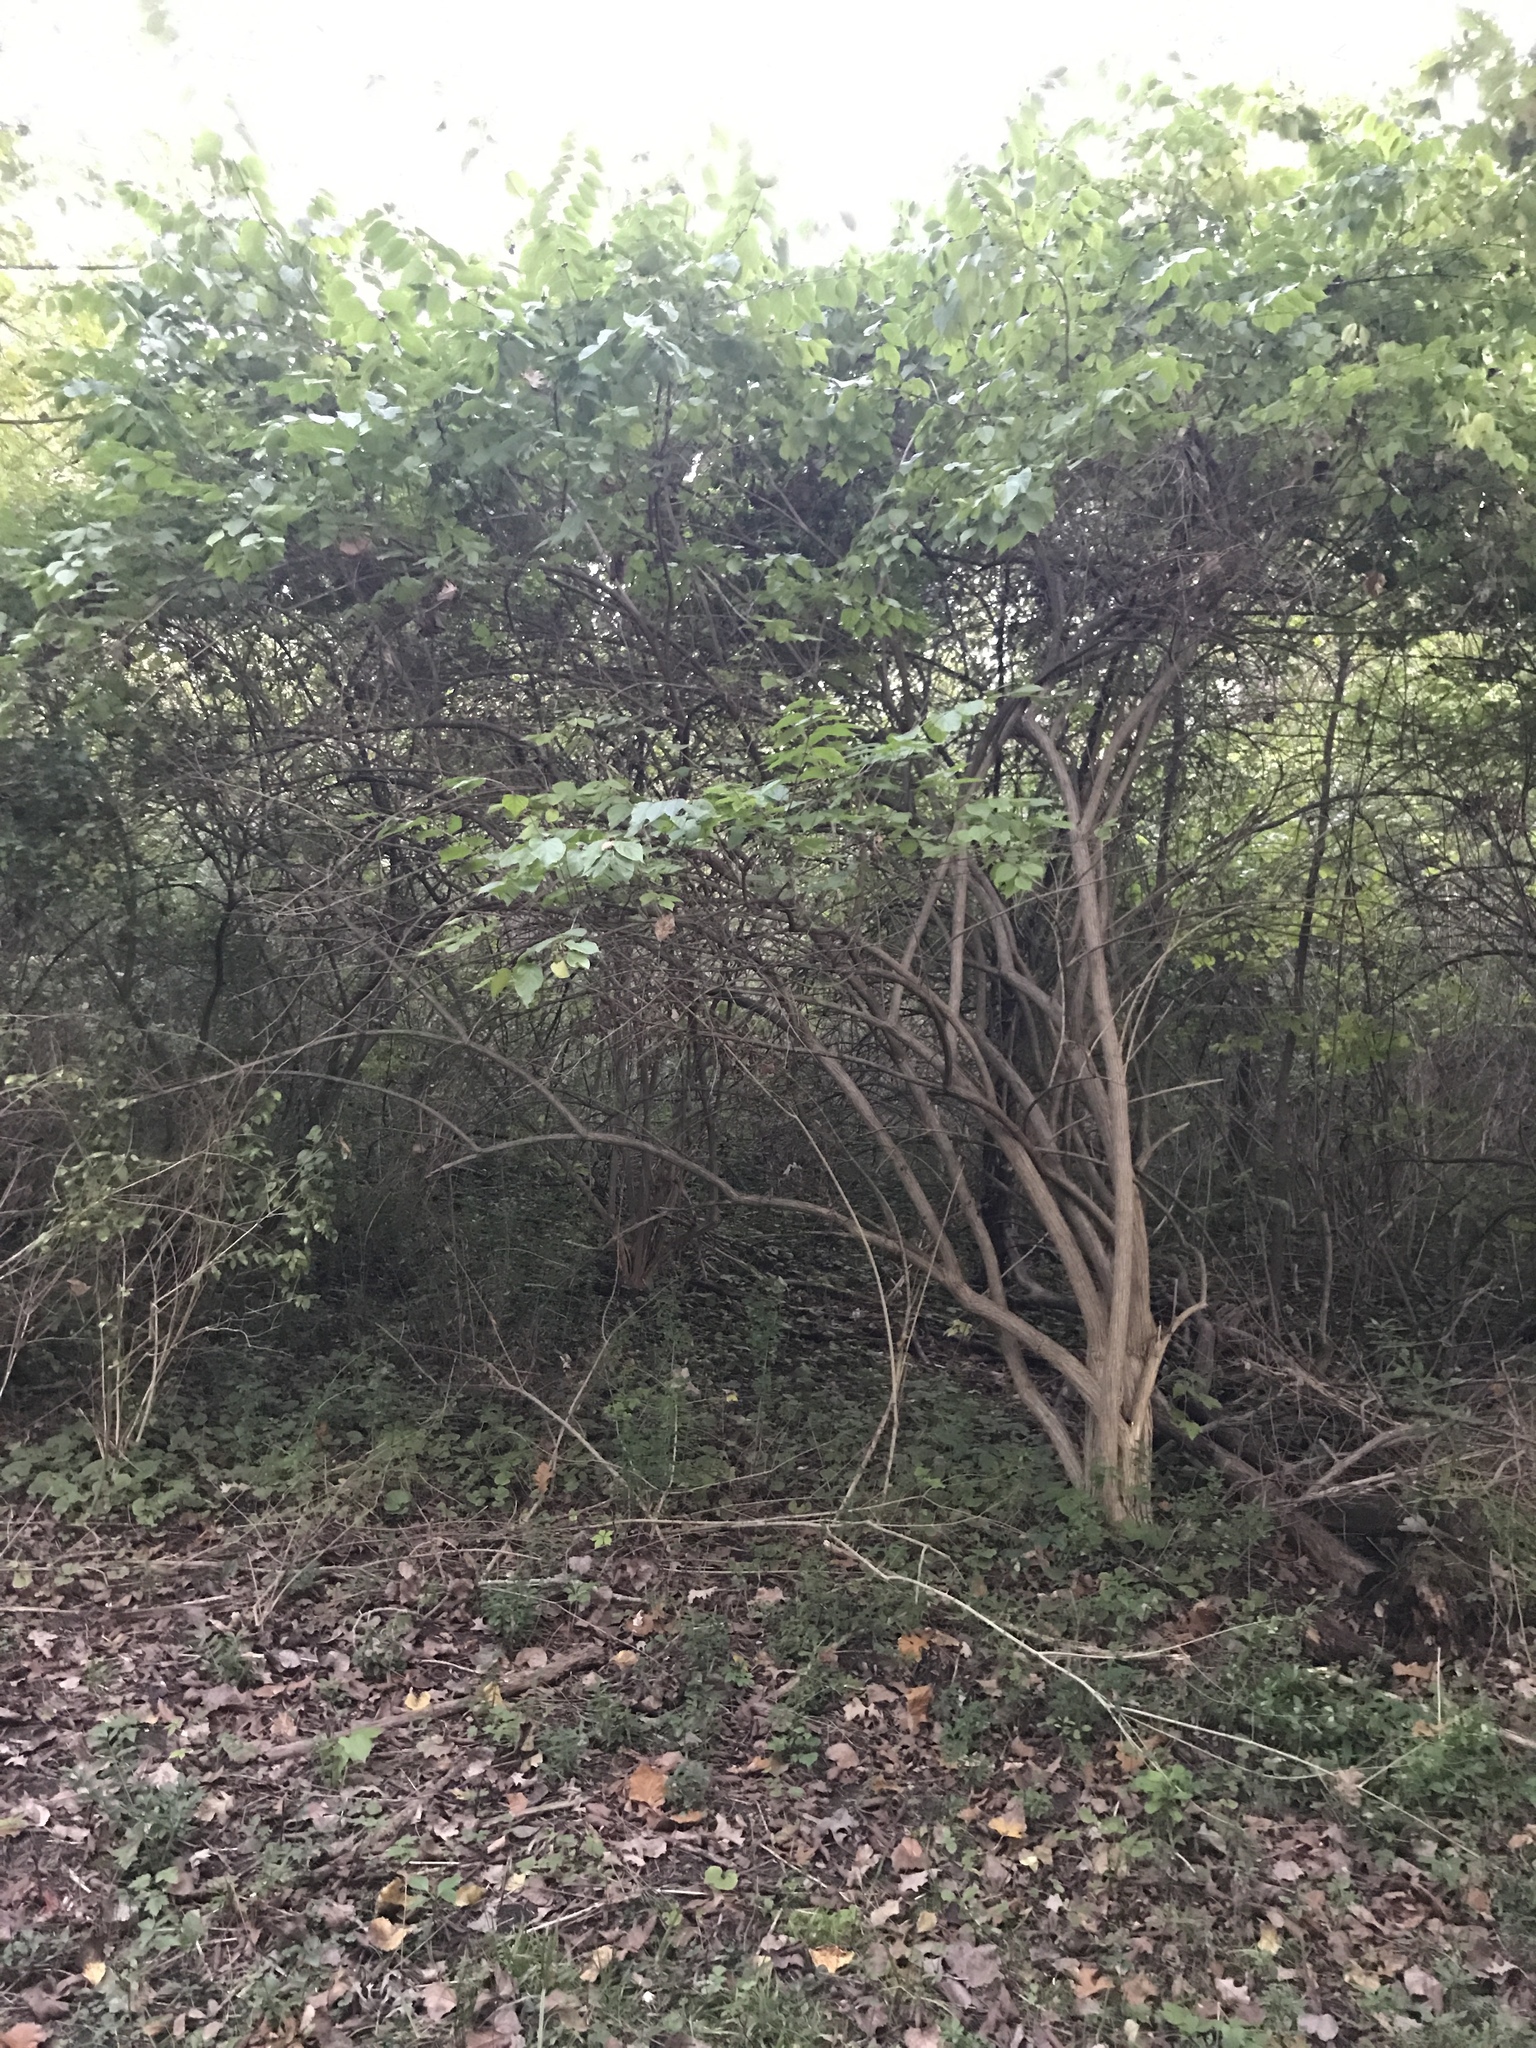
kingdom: Plantae
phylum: Tracheophyta
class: Magnoliopsida
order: Dipsacales
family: Caprifoliaceae
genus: Lonicera
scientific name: Lonicera maackii
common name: Amur honeysuckle
